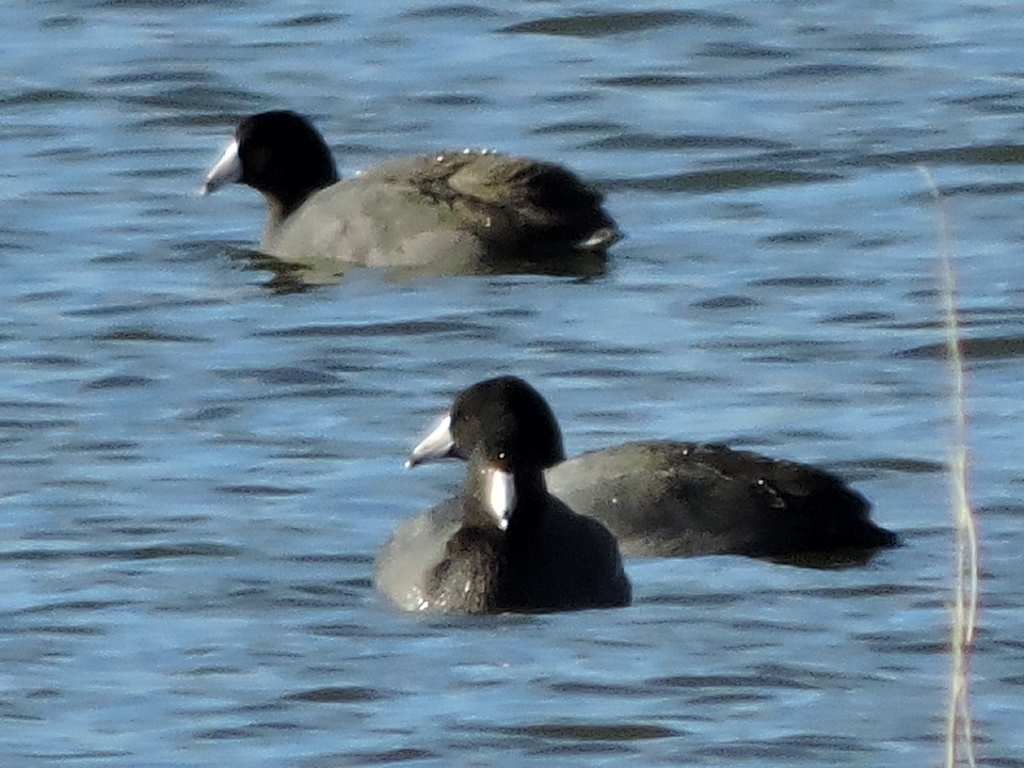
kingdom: Animalia
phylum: Chordata
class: Aves
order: Gruiformes
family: Rallidae
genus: Fulica
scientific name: Fulica americana
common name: American coot
